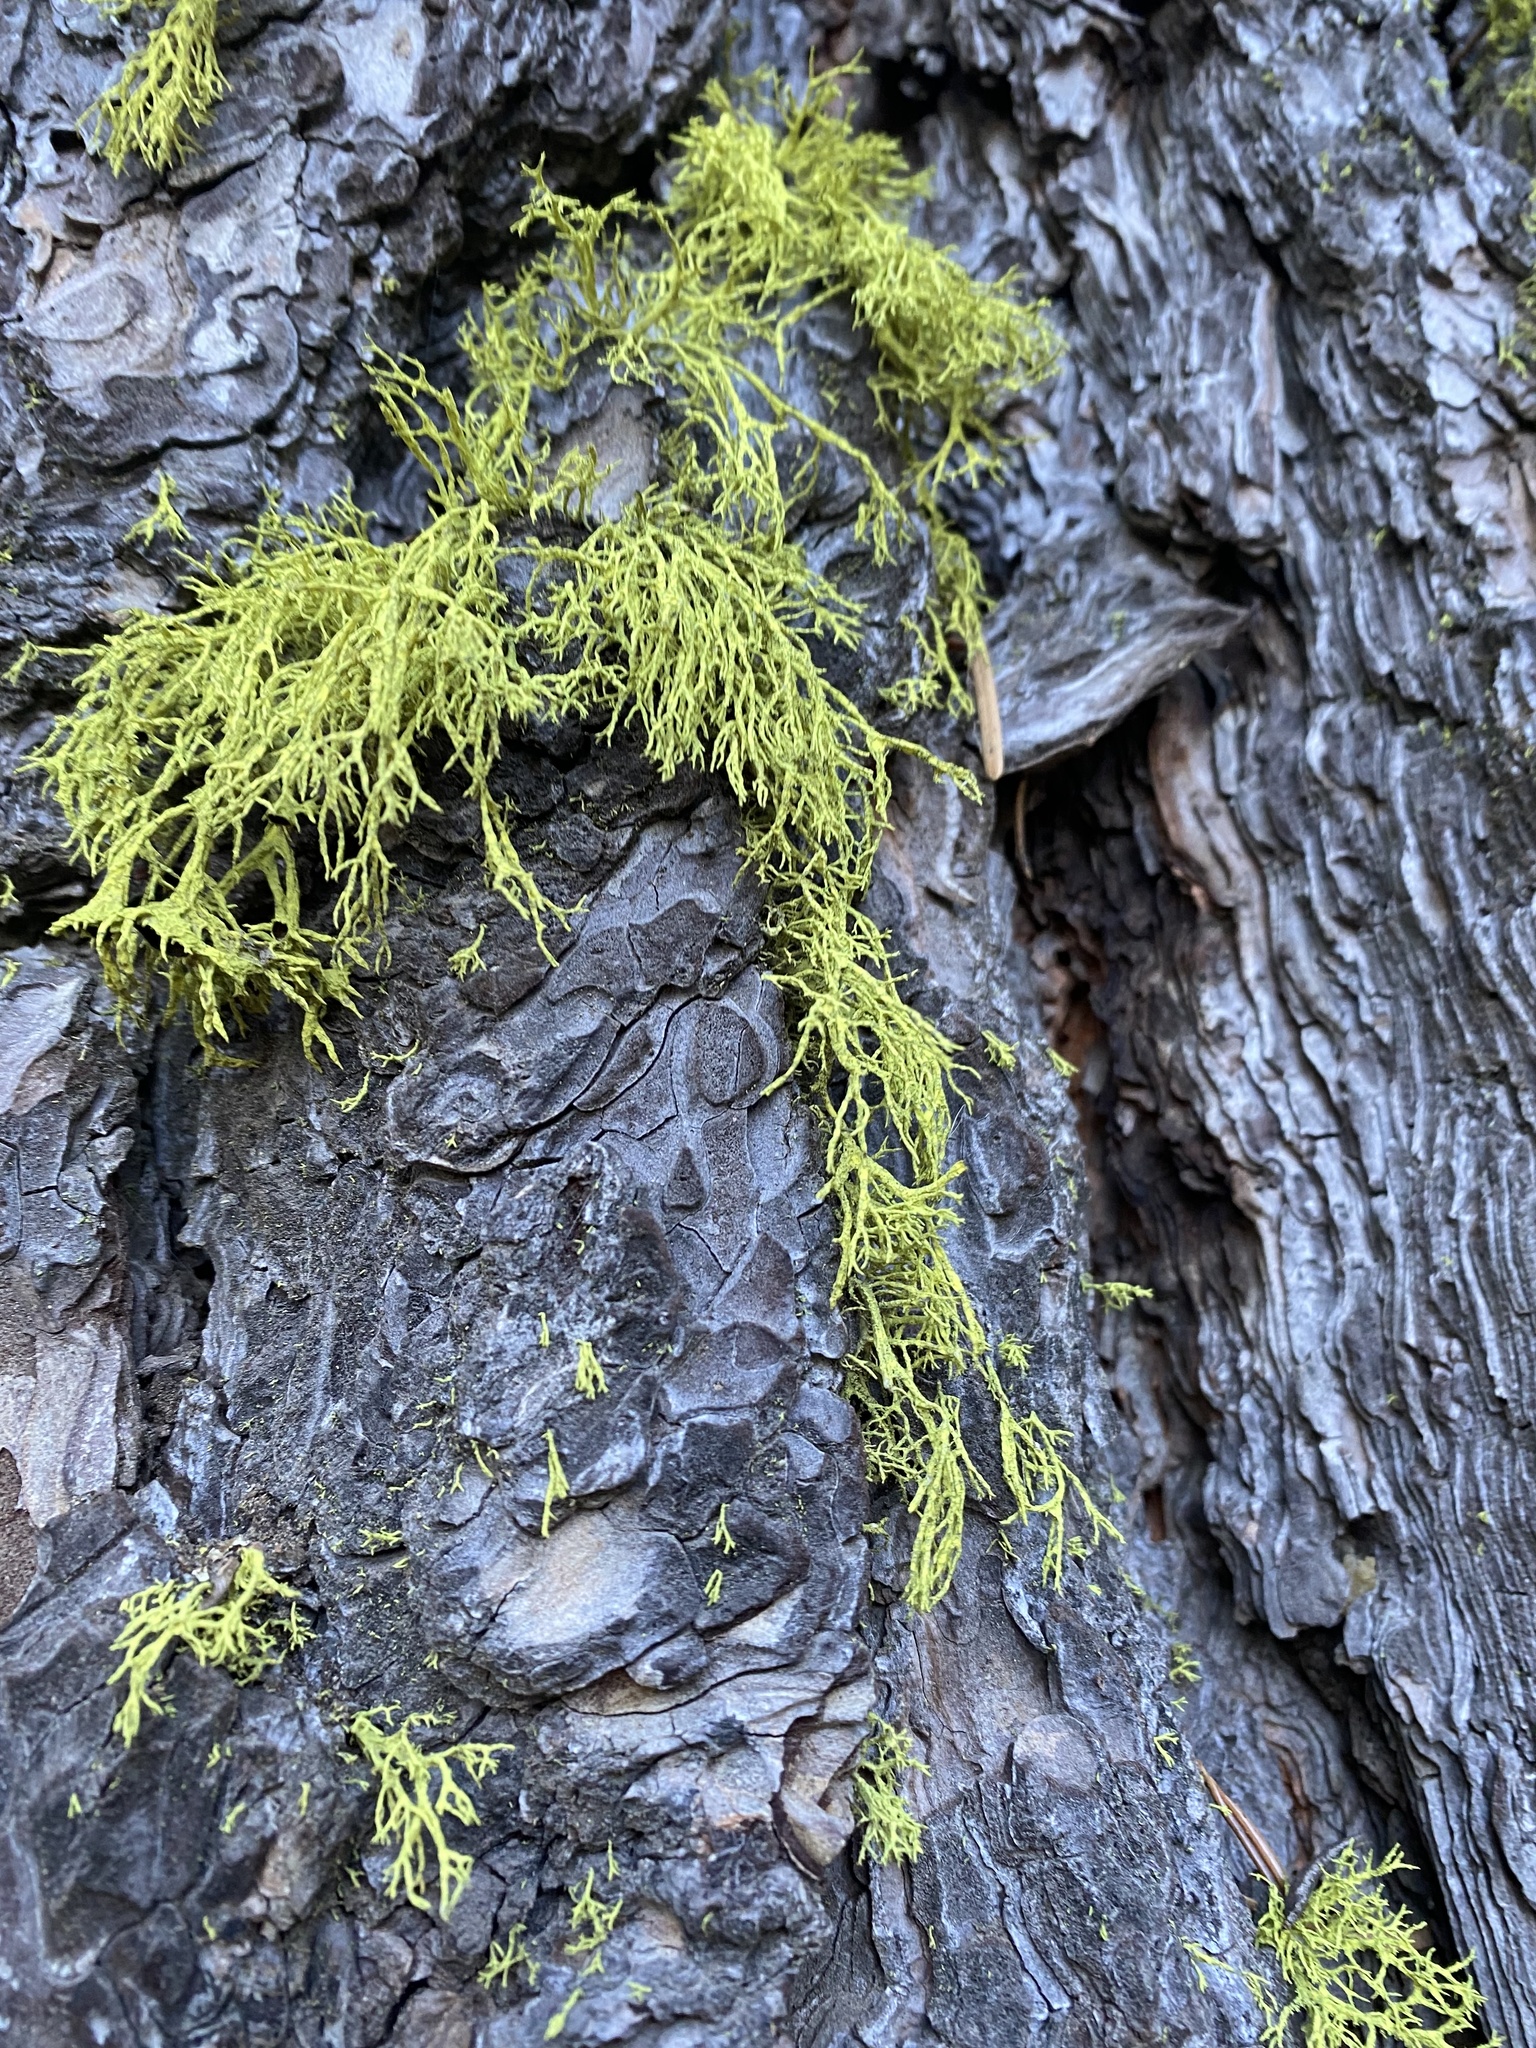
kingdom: Fungi
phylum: Ascomycota
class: Lecanoromycetes
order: Lecanorales
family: Parmeliaceae
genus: Letharia
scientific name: Letharia vulpina
